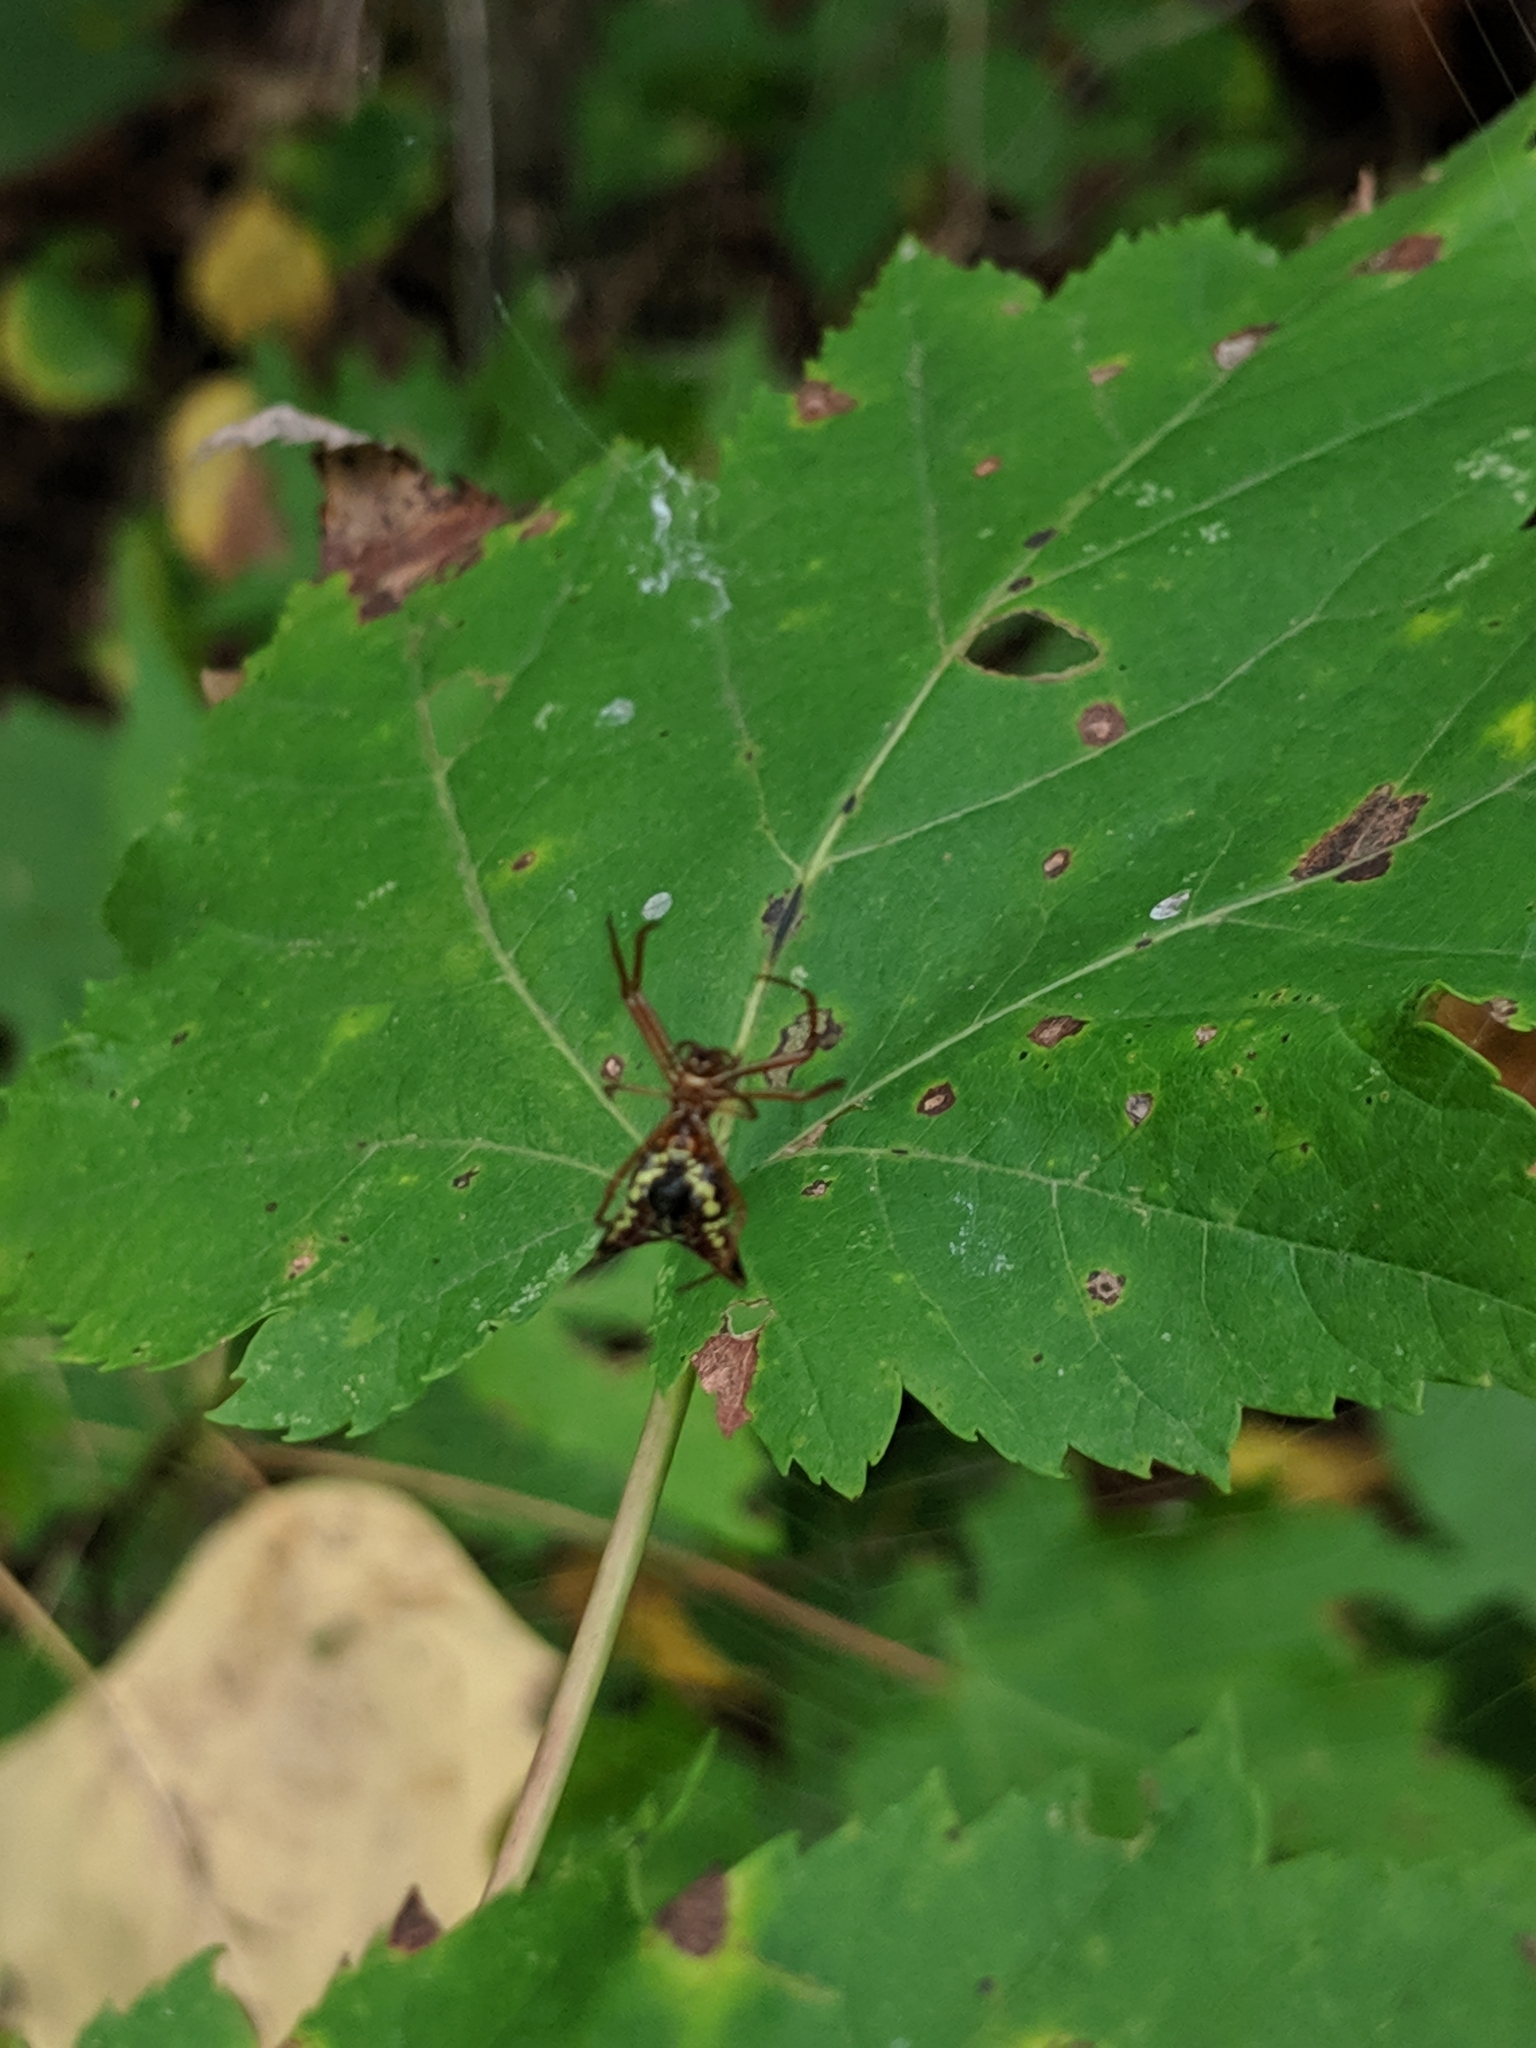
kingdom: Animalia
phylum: Arthropoda
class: Arachnida
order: Araneae
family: Araneidae
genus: Micrathena
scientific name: Micrathena sagittata
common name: Orb weavers
